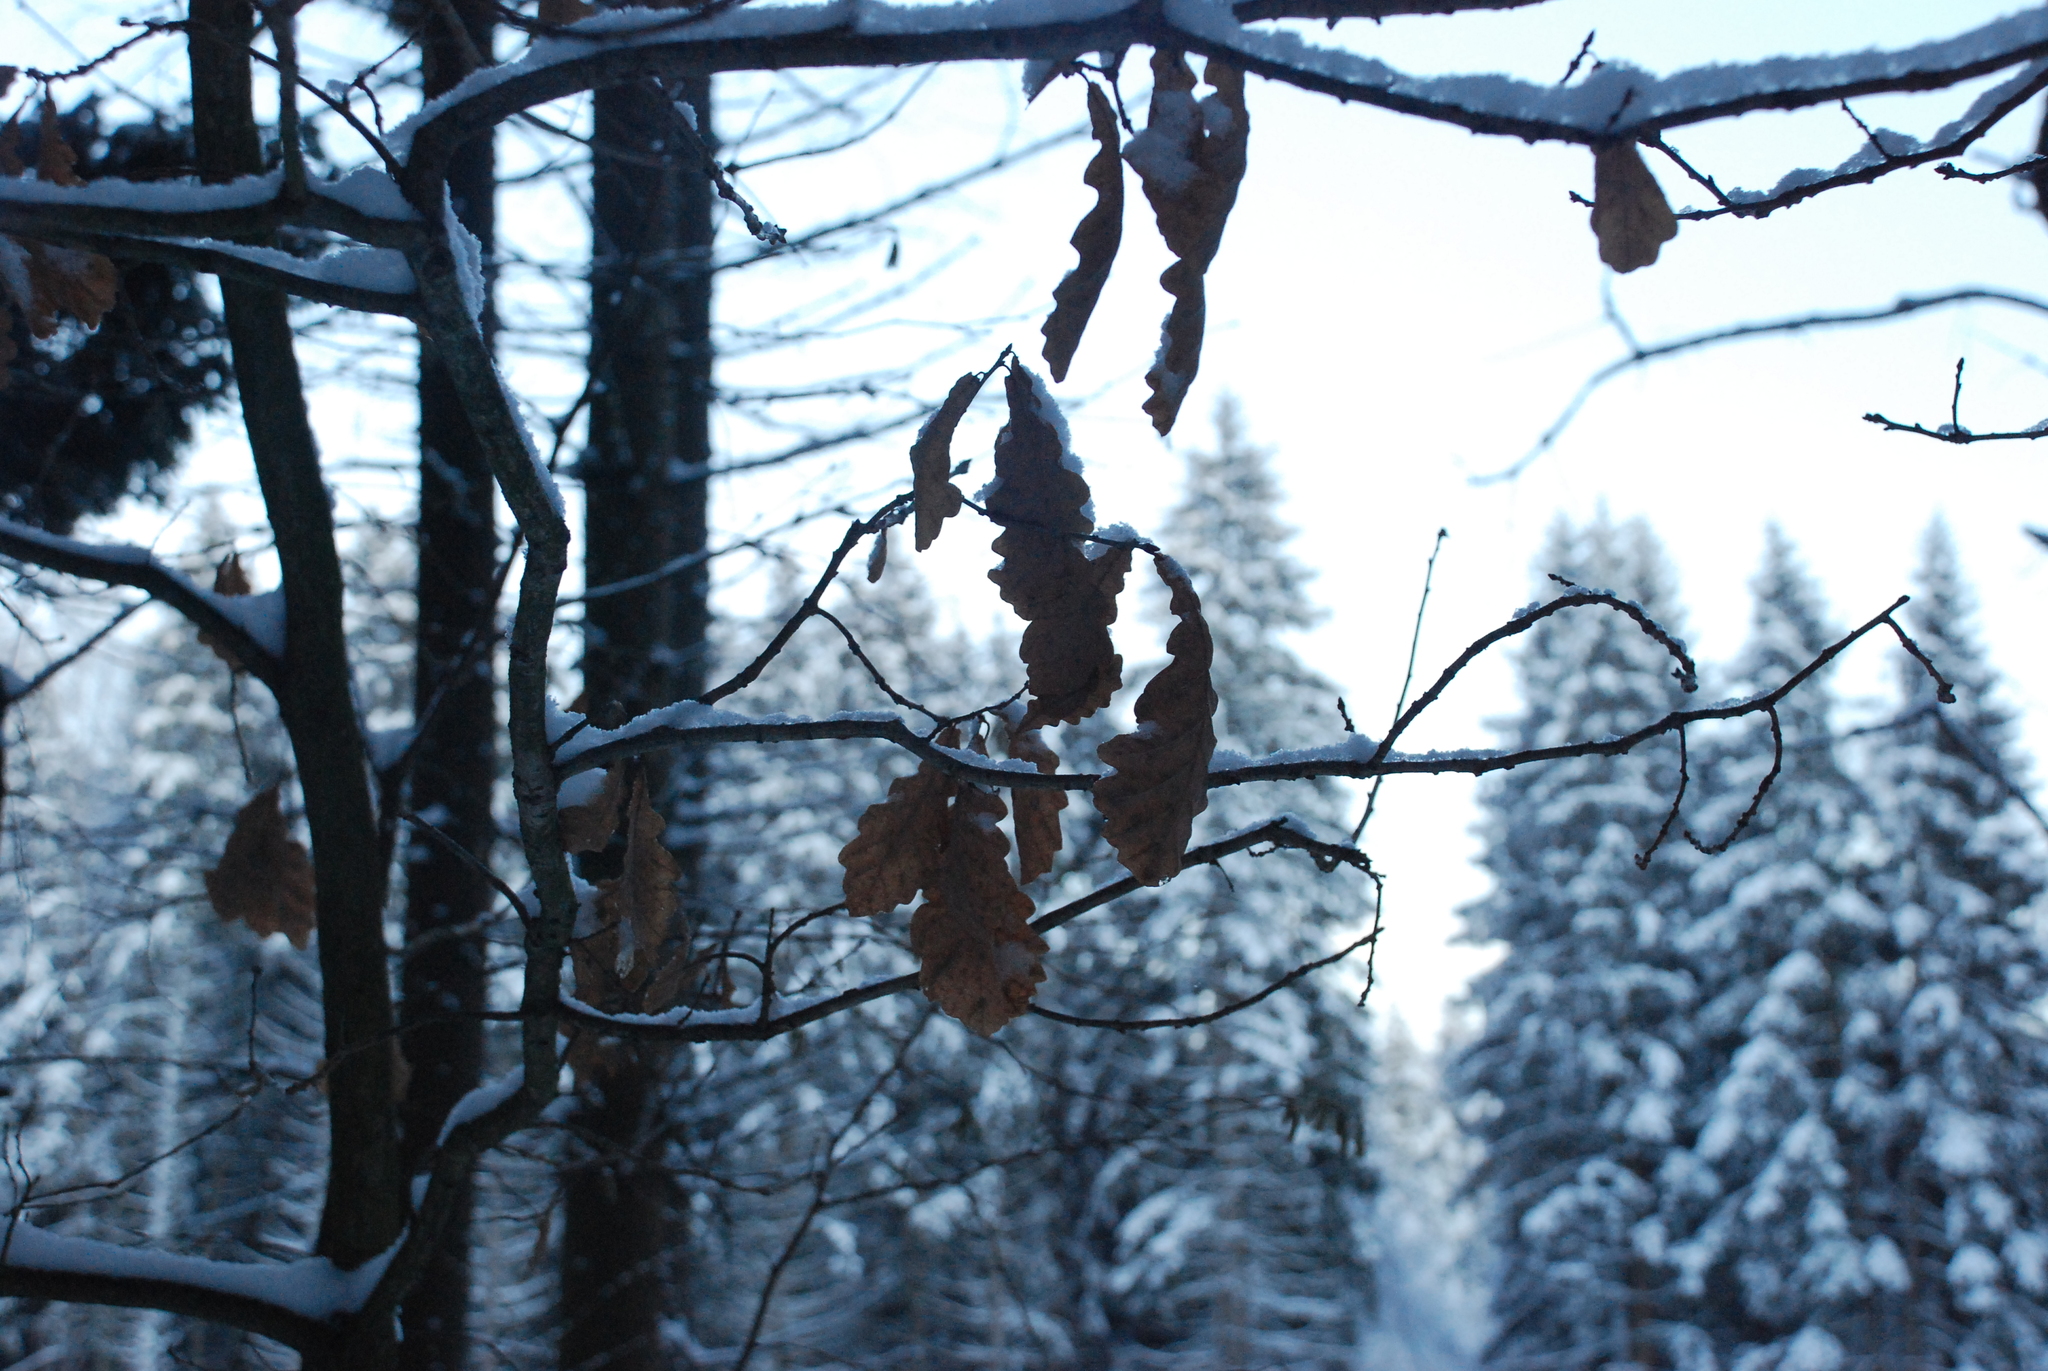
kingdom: Plantae
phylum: Tracheophyta
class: Magnoliopsida
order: Fagales
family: Fagaceae
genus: Quercus
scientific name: Quercus robur
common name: Pedunculate oak
